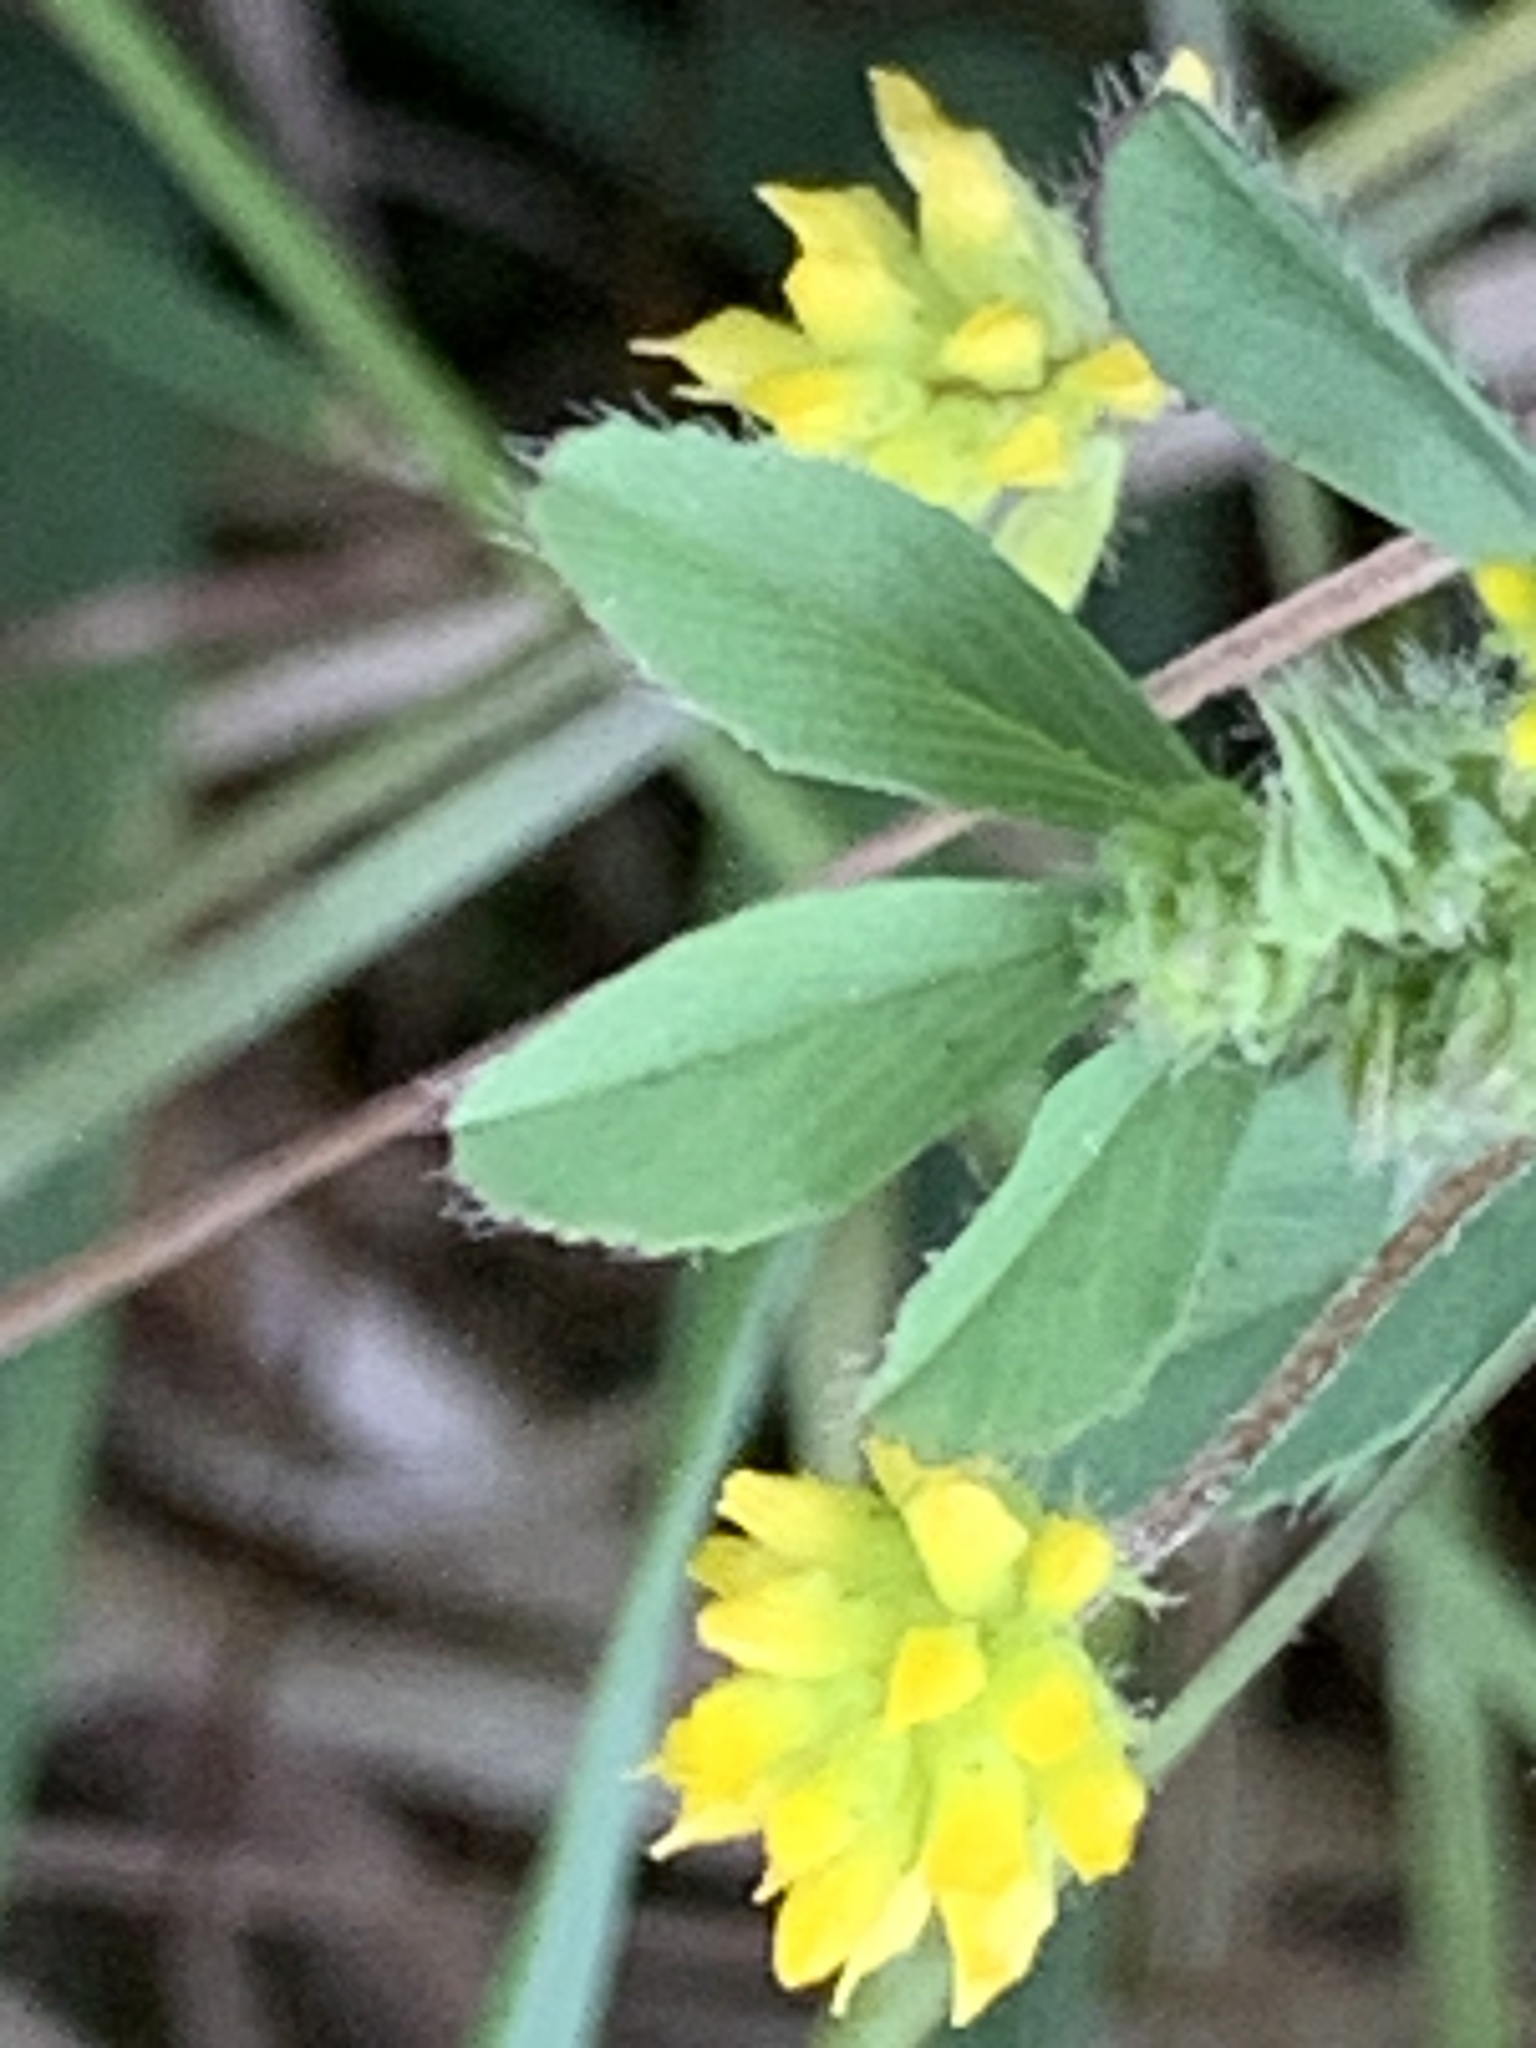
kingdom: Plantae
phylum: Tracheophyta
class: Magnoliopsida
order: Fabales
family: Fabaceae
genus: Trifolium
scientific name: Trifolium dubium
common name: Suckling clover
